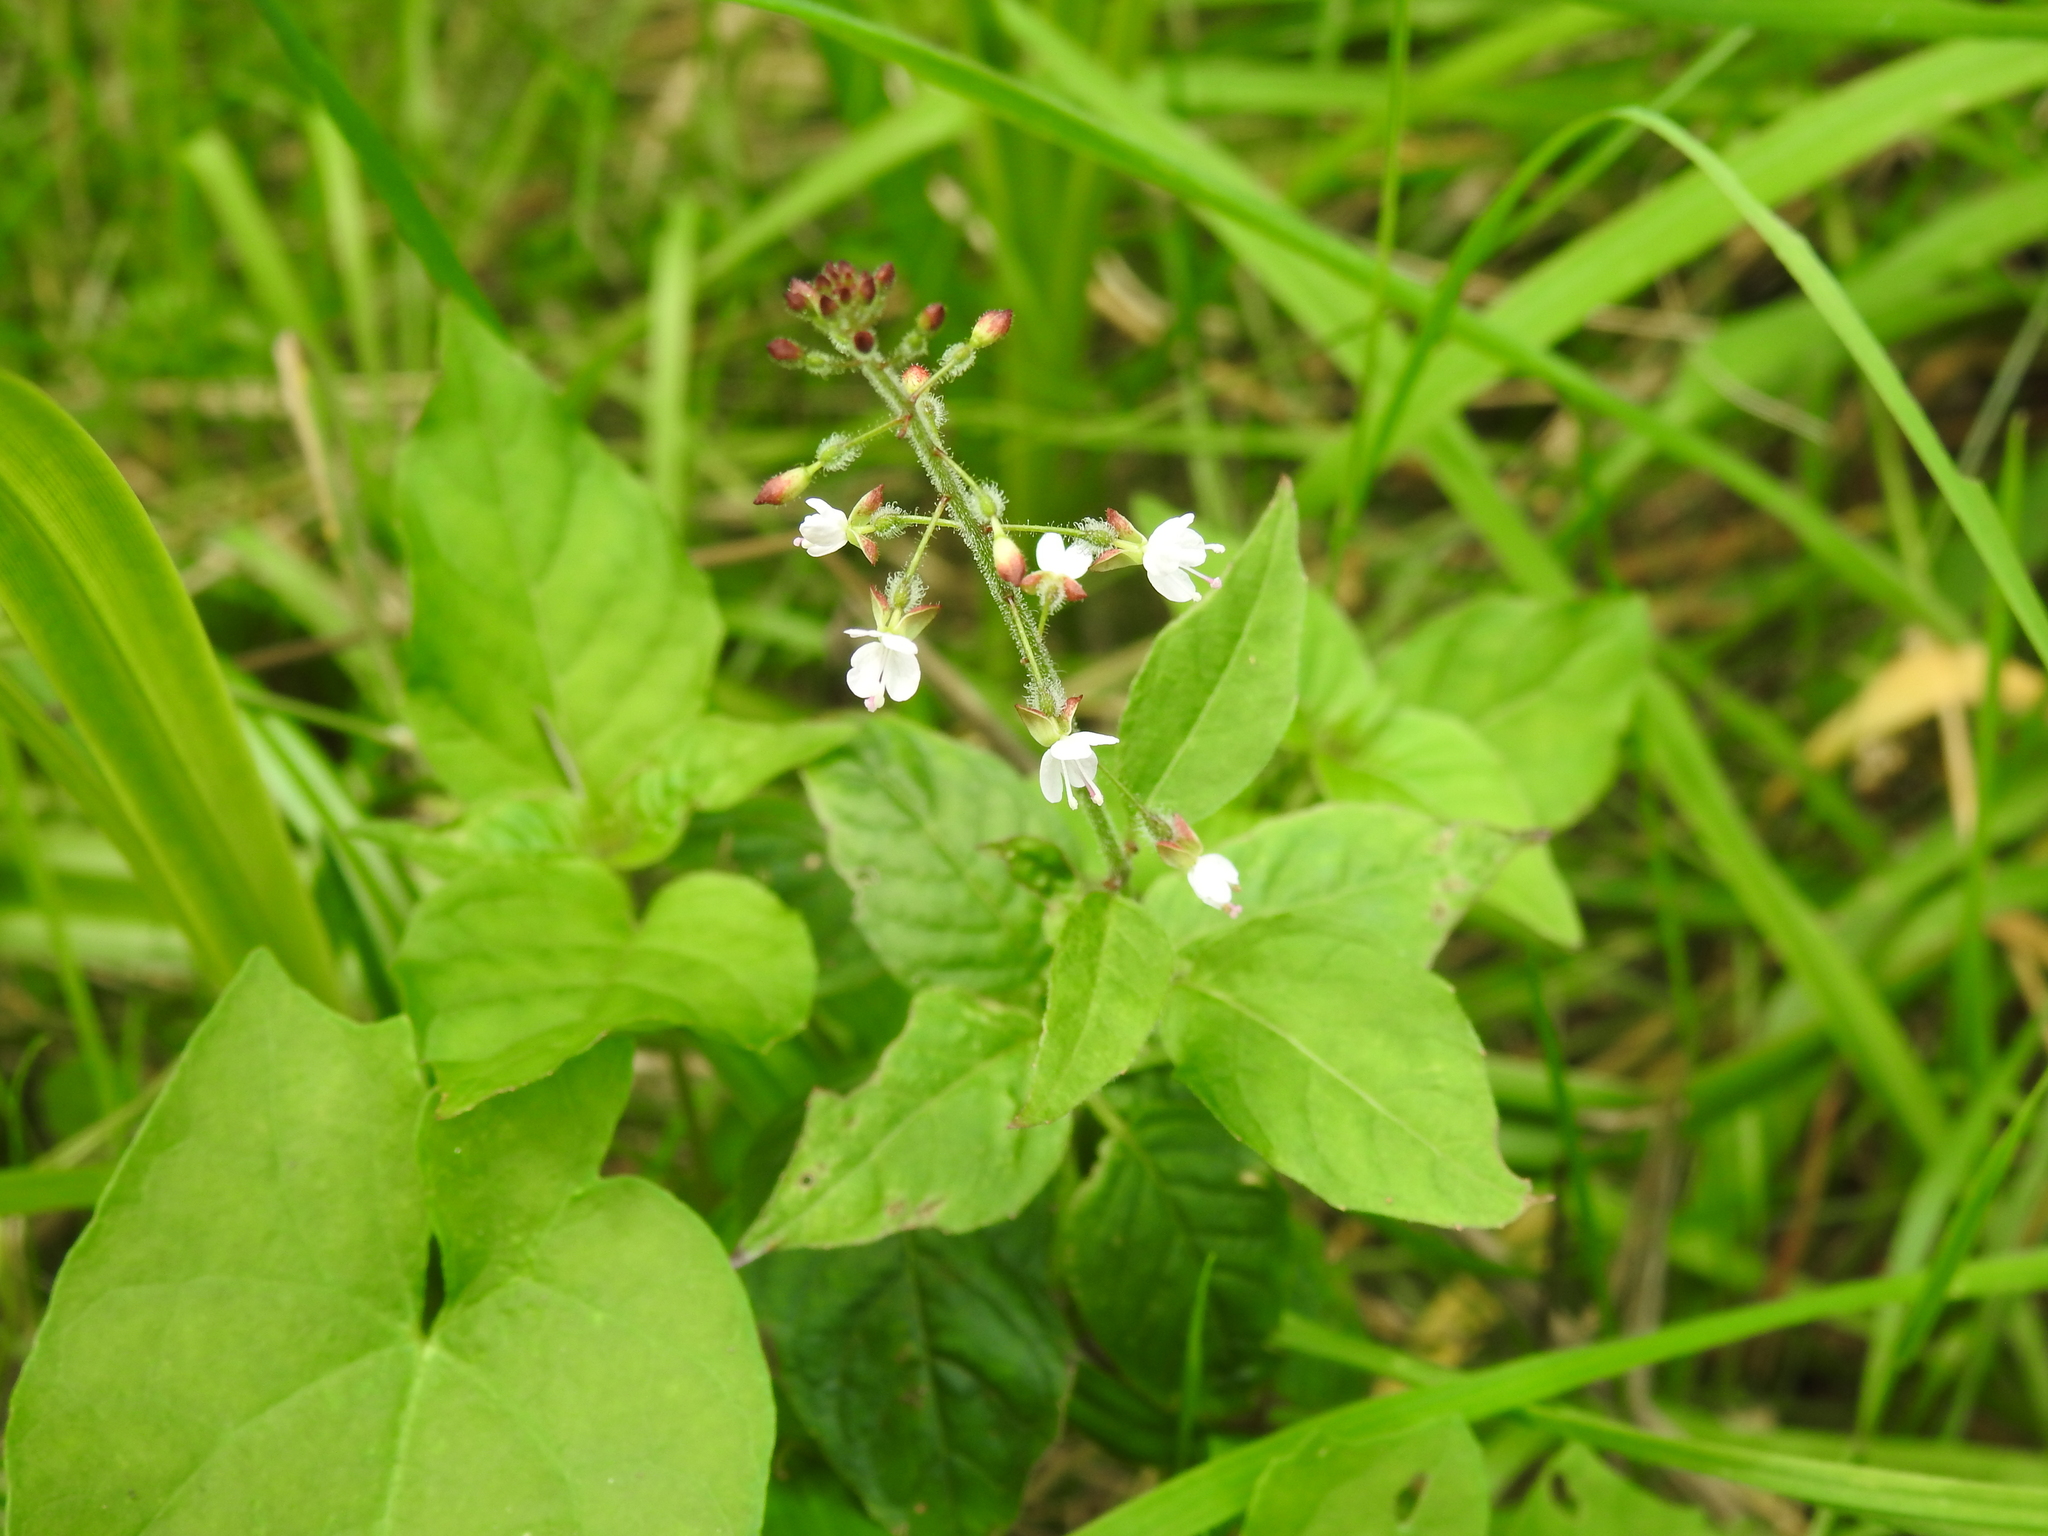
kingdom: Plantae
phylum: Tracheophyta
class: Magnoliopsida
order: Myrtales
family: Onagraceae
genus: Circaea
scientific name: Circaea lutetiana
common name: Enchanter's-nightshade
